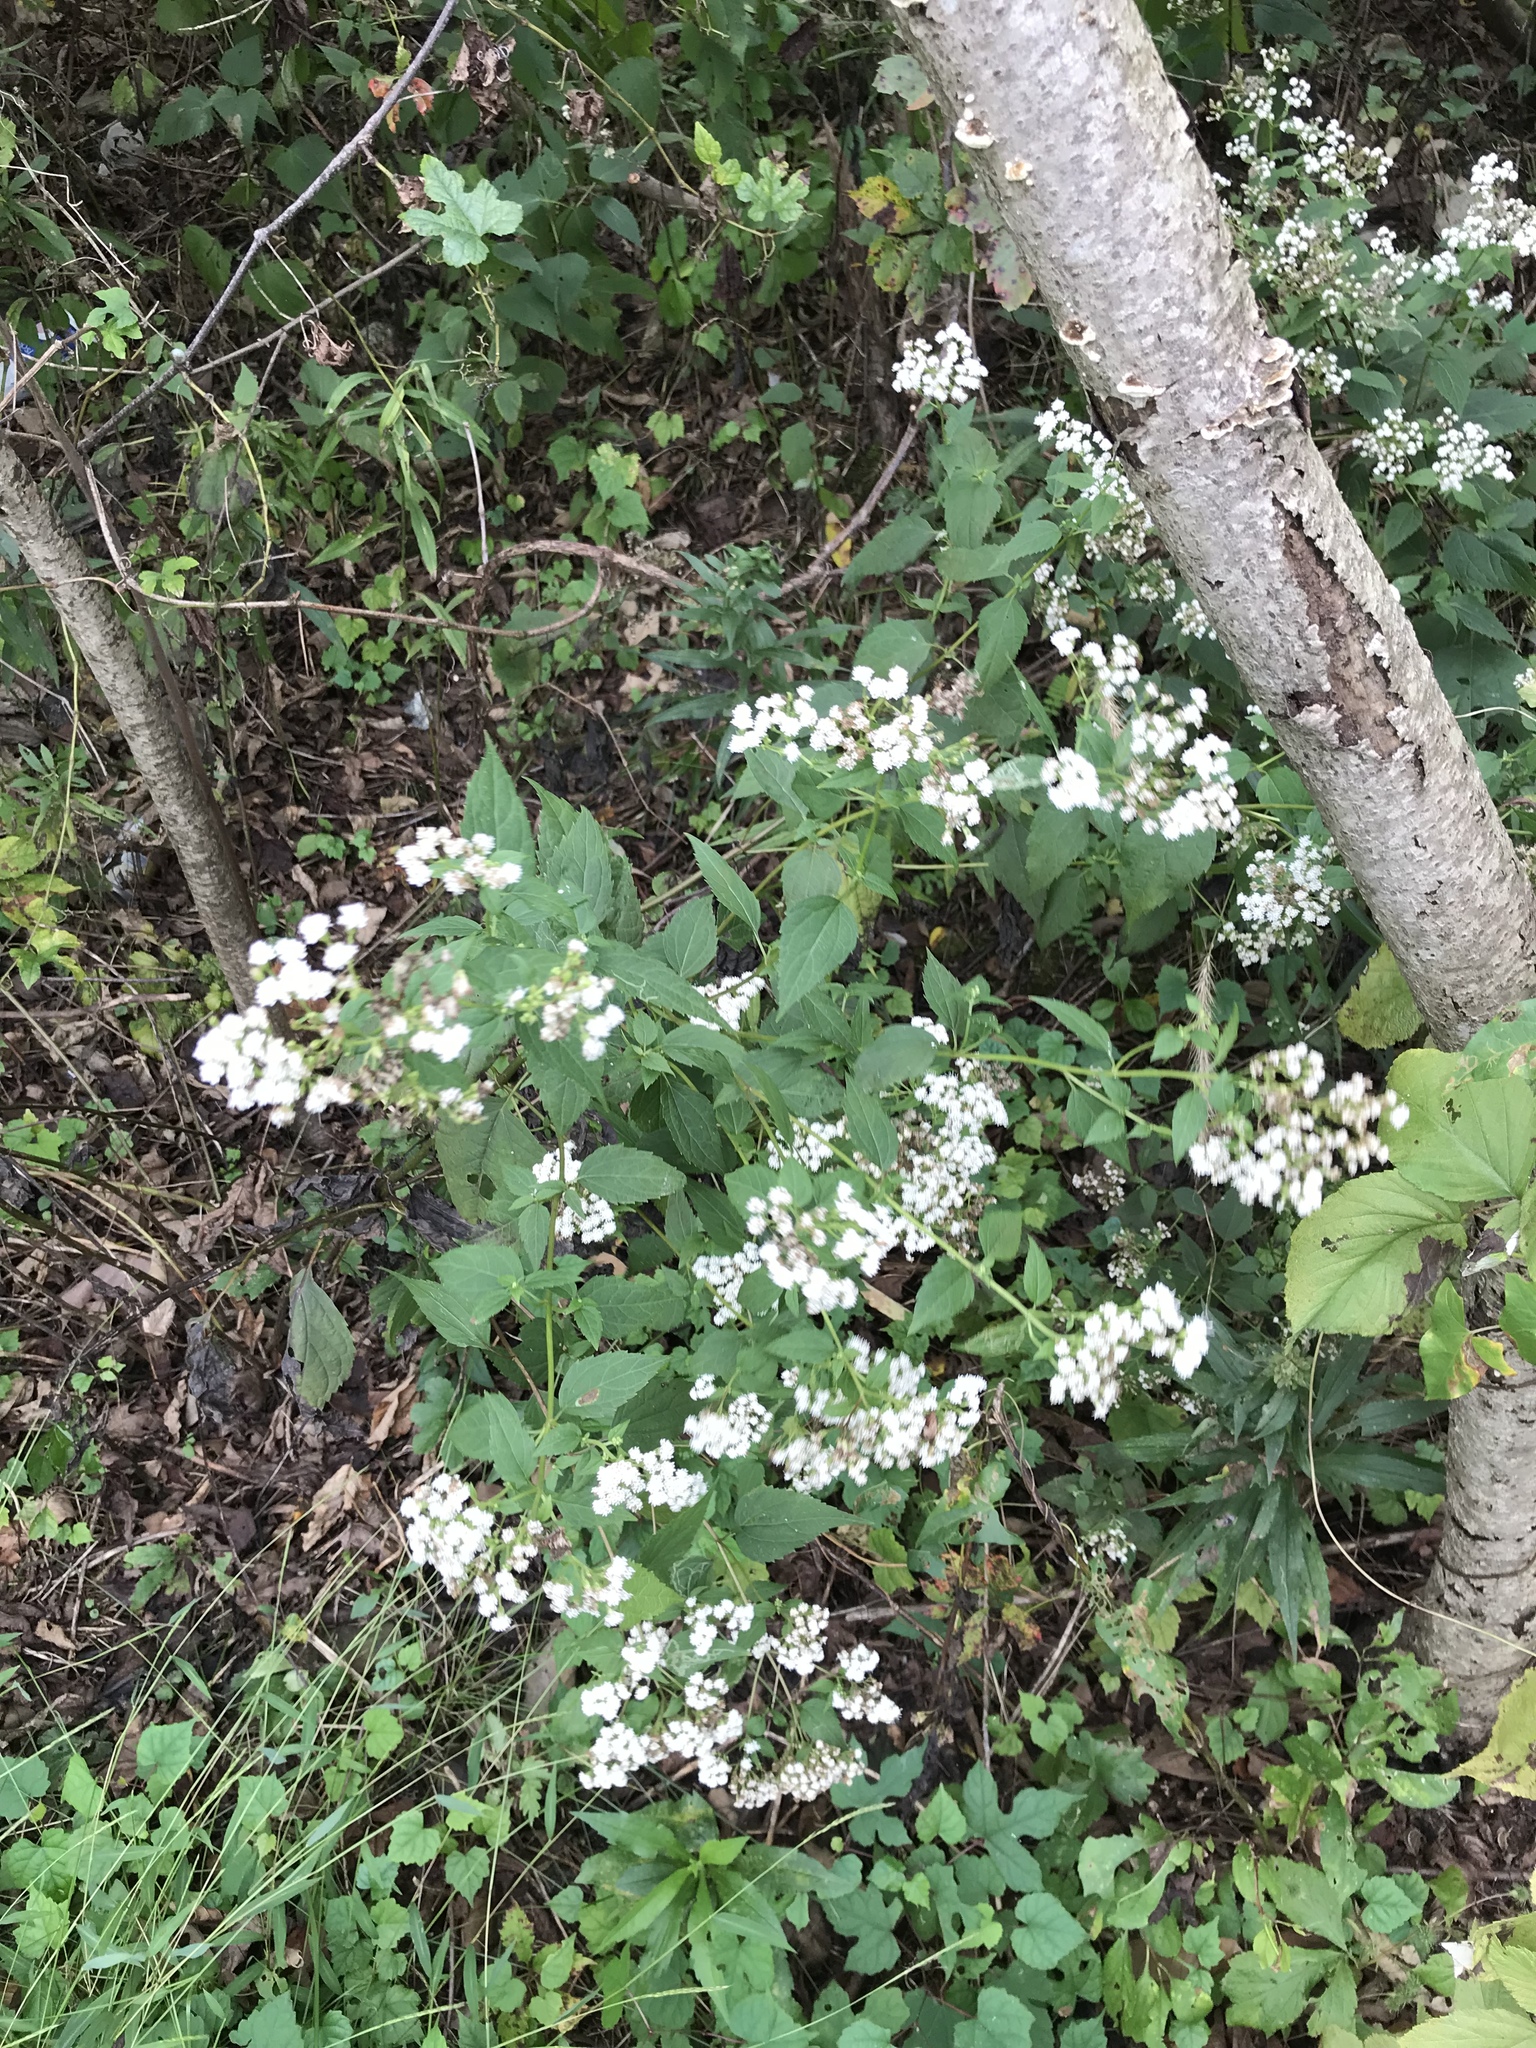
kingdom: Plantae
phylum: Tracheophyta
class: Magnoliopsida
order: Asterales
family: Asteraceae
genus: Ageratina
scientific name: Ageratina altissima
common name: White snakeroot
